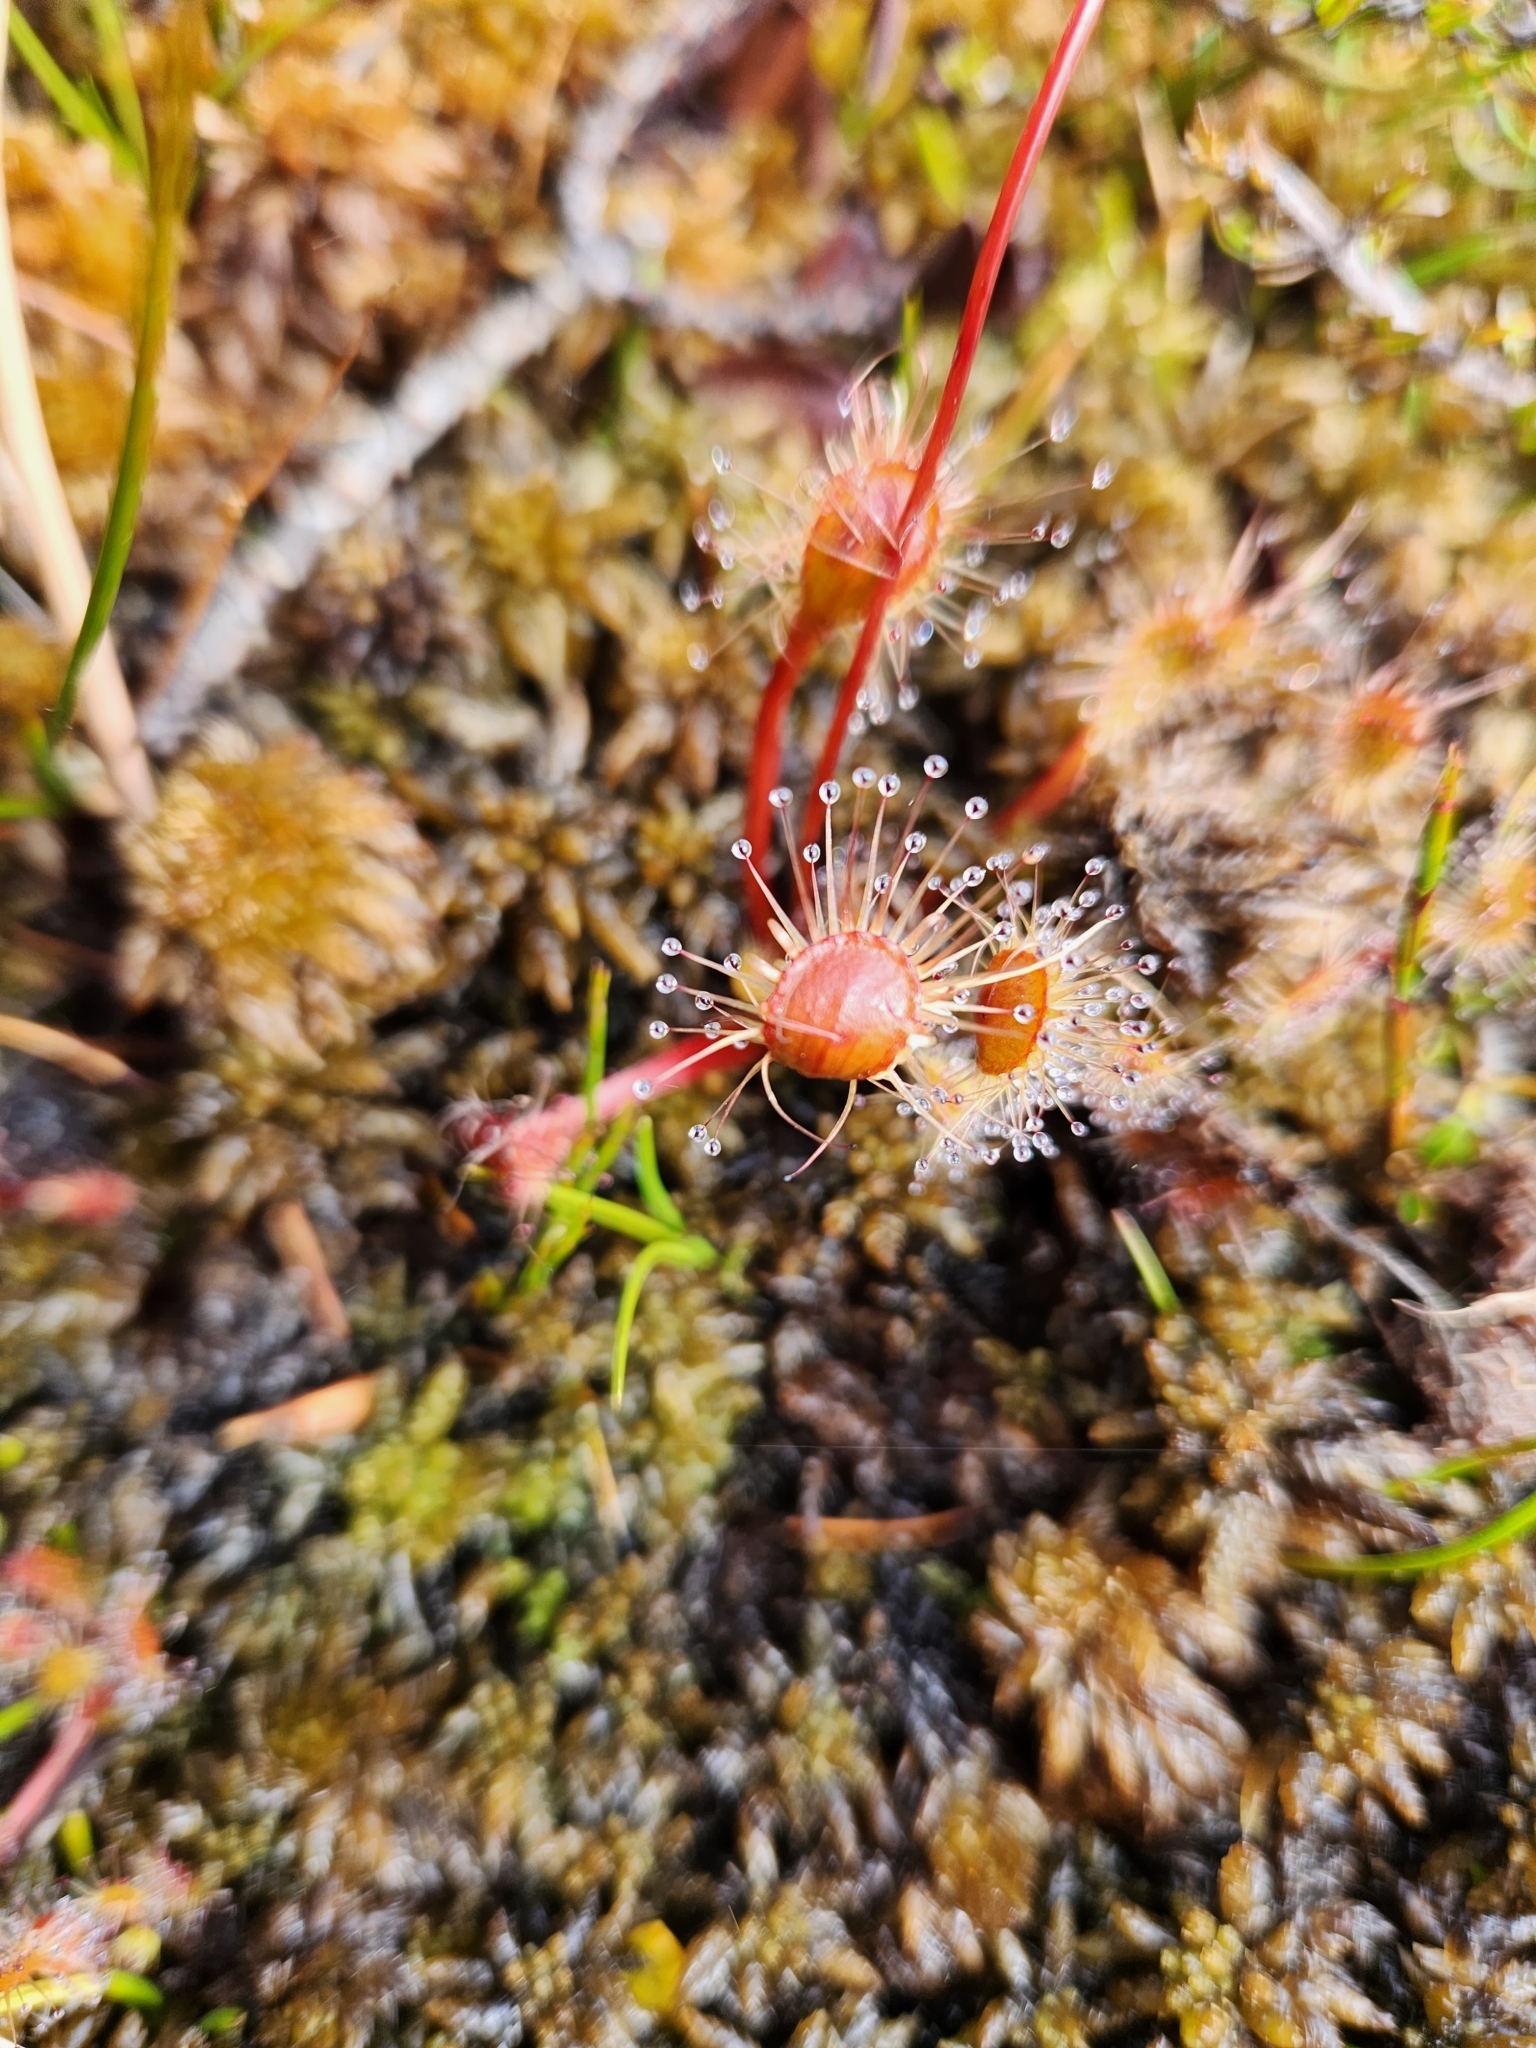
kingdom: Plantae
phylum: Tracheophyta
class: Magnoliopsida
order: Caryophyllales
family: Droseraceae
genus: Drosera
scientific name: Drosera stenopetala
